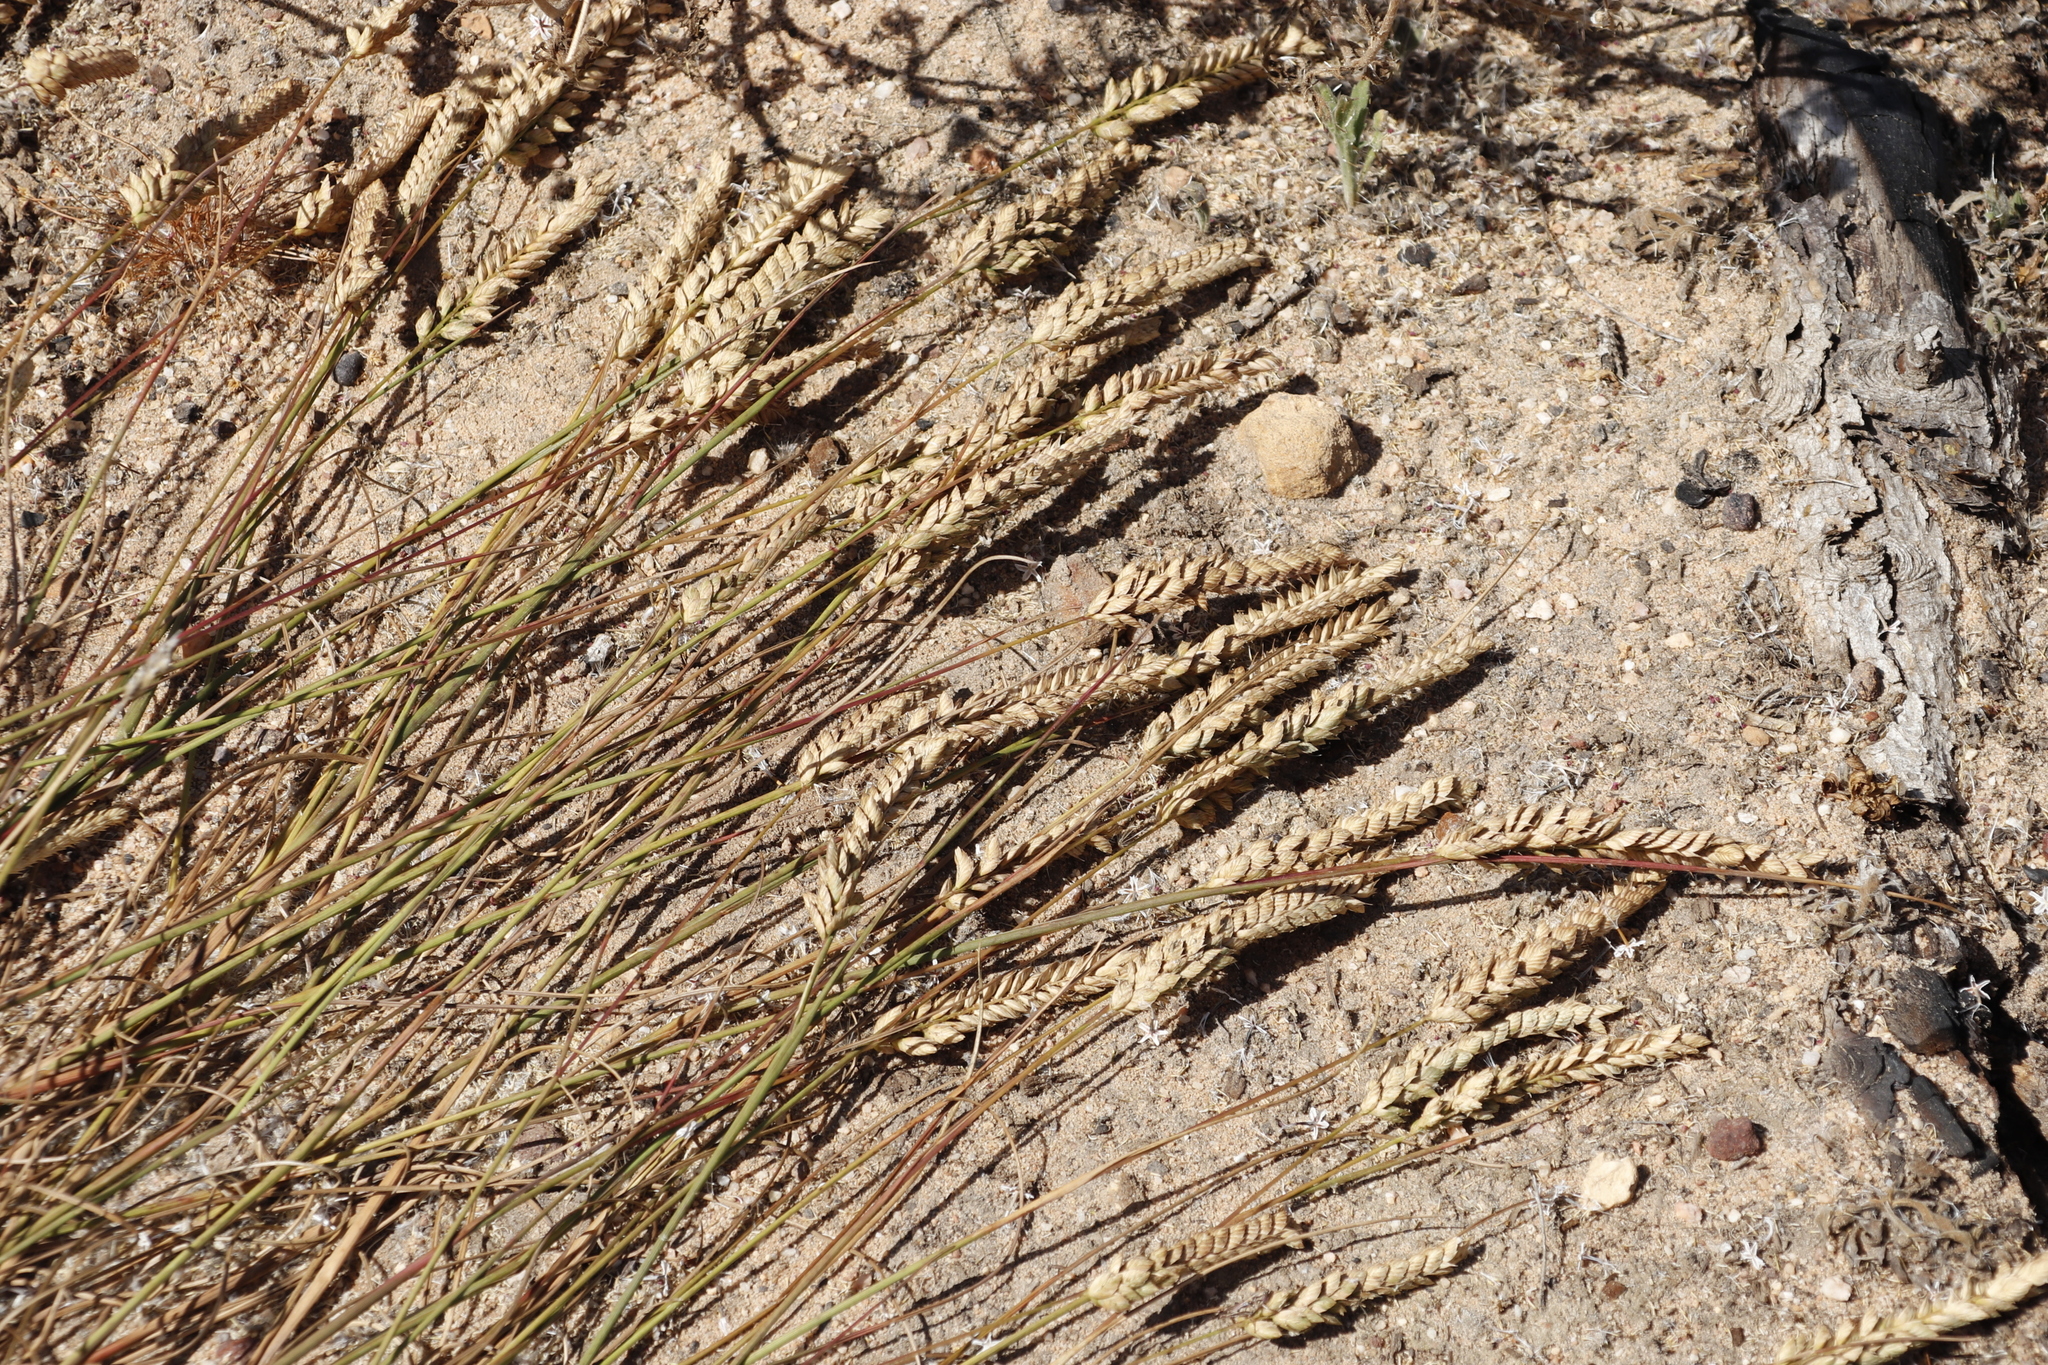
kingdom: Plantae
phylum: Tracheophyta
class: Liliopsida
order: Poales
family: Poaceae
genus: Tribolium
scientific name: Tribolium uniolae
